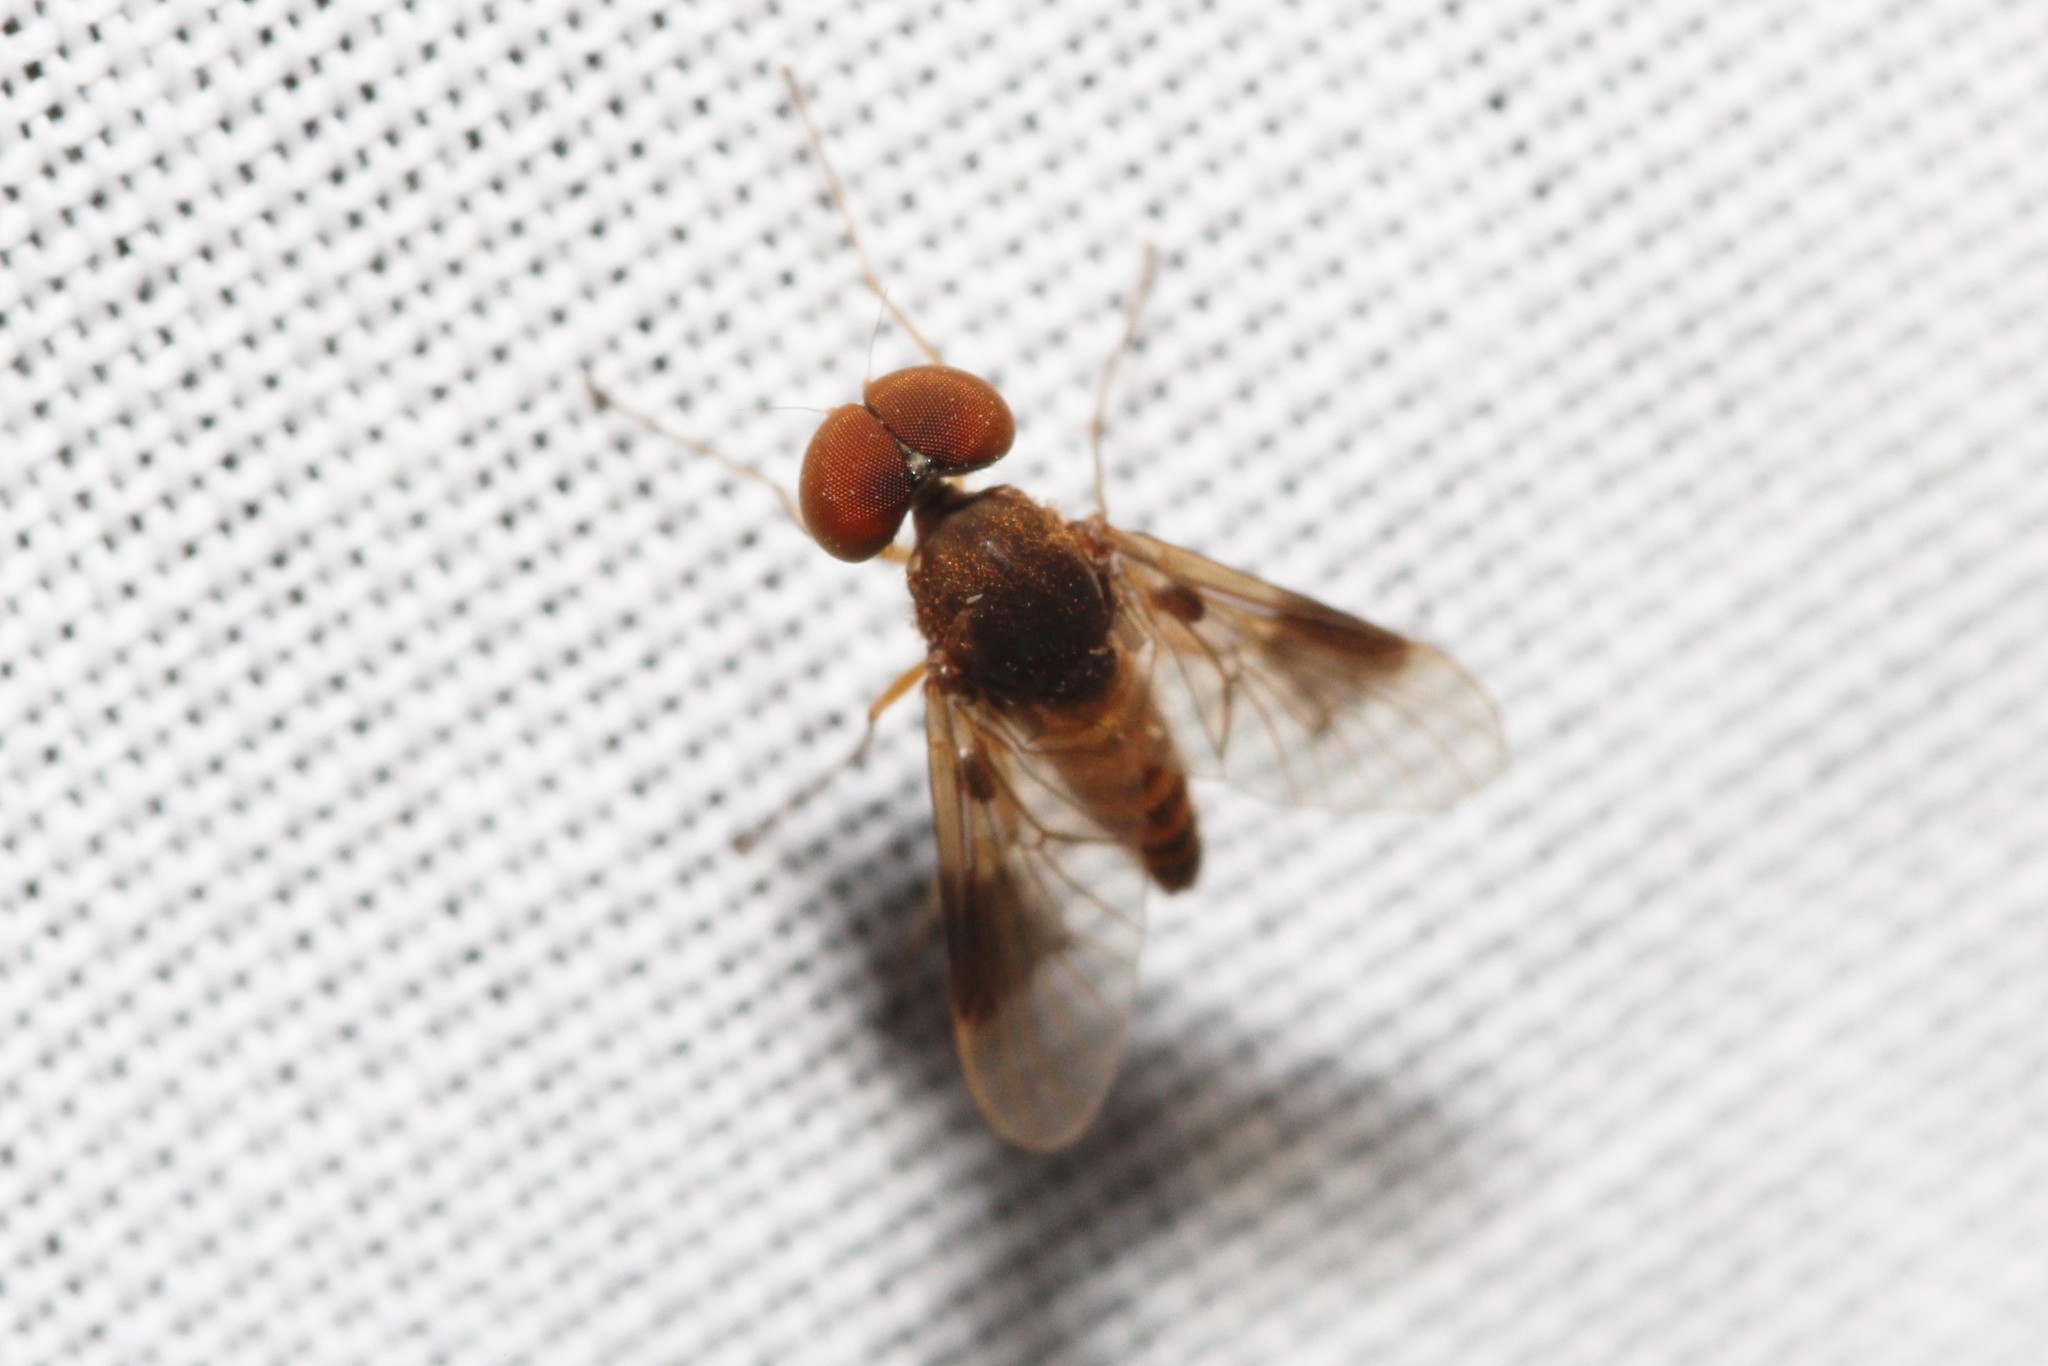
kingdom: Animalia
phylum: Arthropoda
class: Insecta
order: Diptera
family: Rhagionidae
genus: Chrysopilus
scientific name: Chrysopilus quadratus
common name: Quadrate snipe fly
